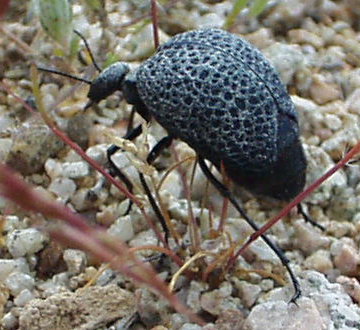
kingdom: Animalia
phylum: Arthropoda
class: Insecta
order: Coleoptera
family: Meloidae
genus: Cysteodemus
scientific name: Cysteodemus armatus
